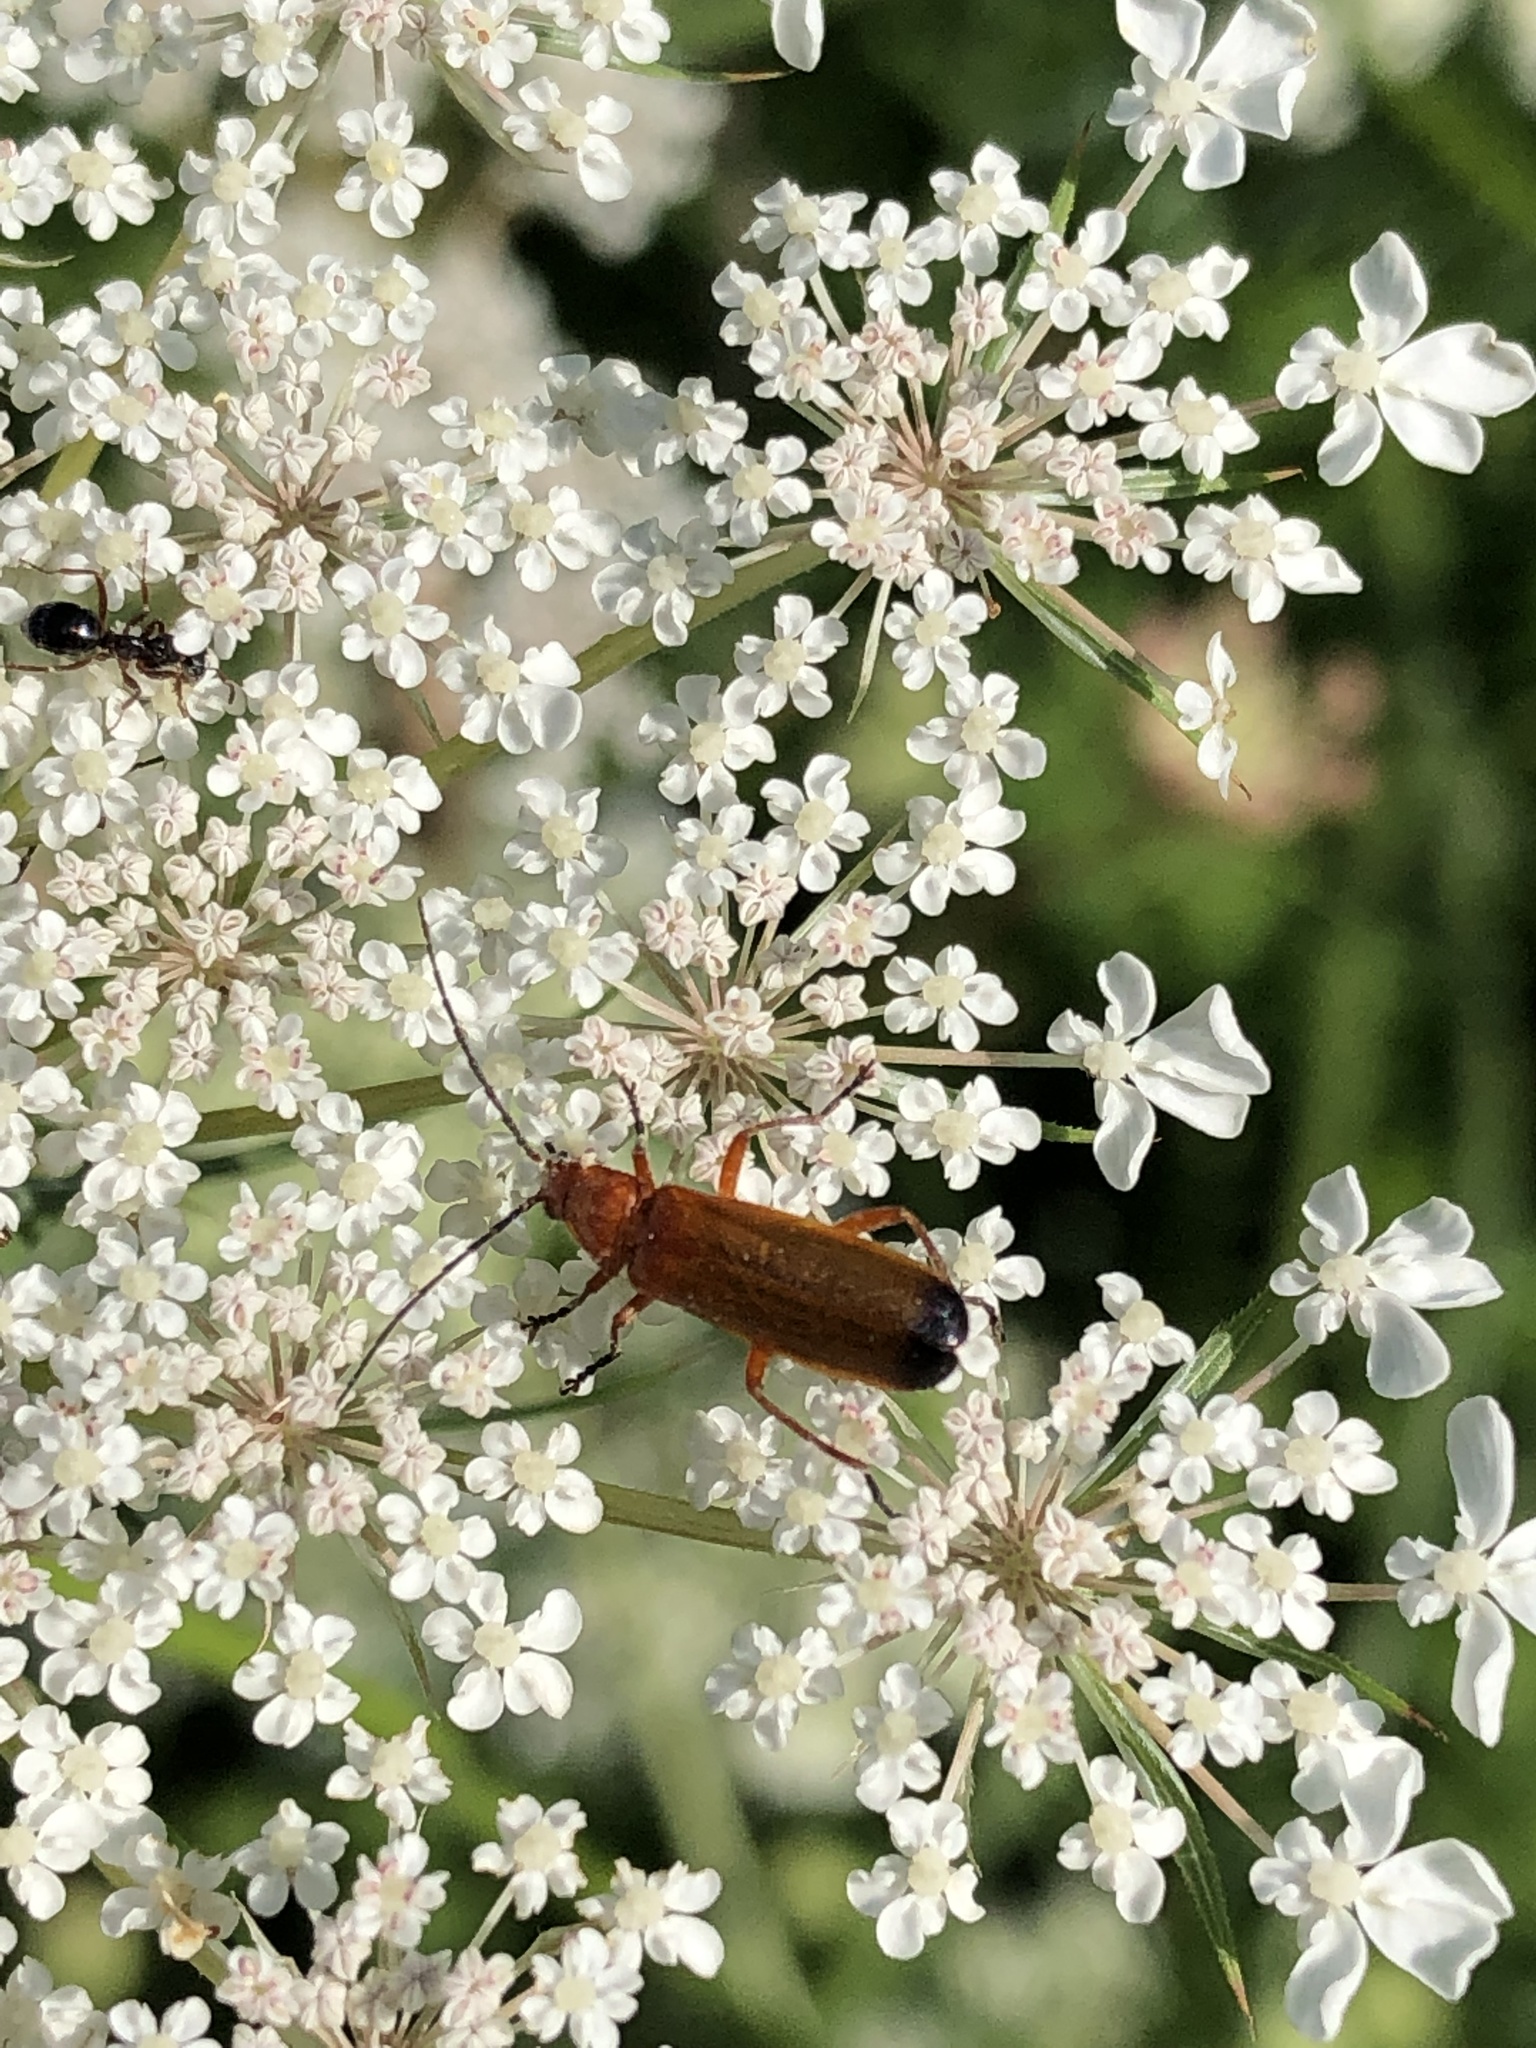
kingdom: Animalia
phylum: Arthropoda
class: Insecta
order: Coleoptera
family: Cantharidae
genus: Rhagonycha
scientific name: Rhagonycha fulva
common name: Common red soldier beetle
